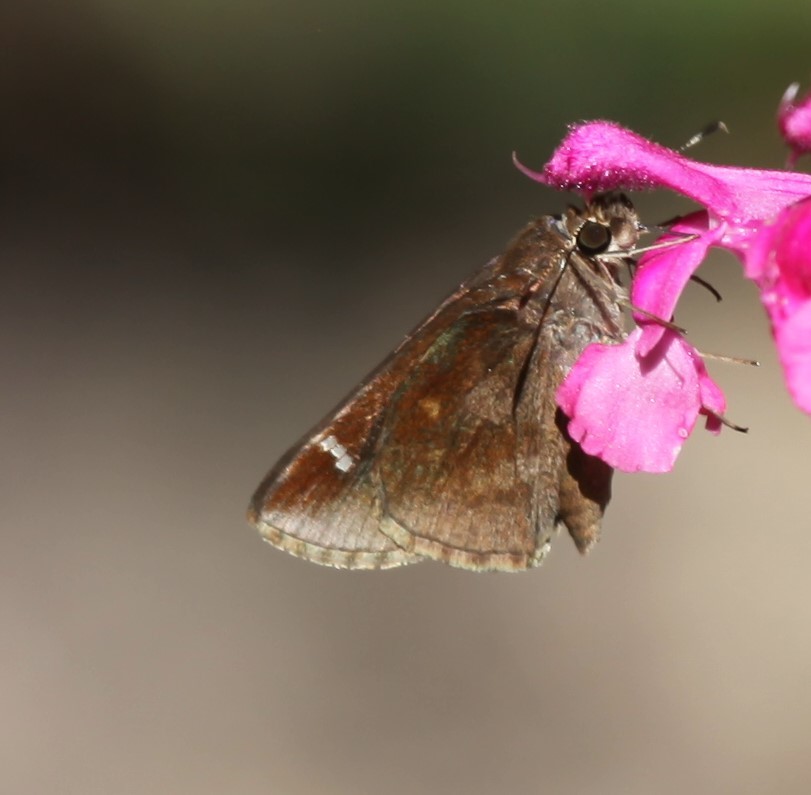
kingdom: Animalia
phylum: Arthropoda
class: Insecta
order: Lepidoptera
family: Hesperiidae
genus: Lerema
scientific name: Lerema accius
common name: Clouded skipper
